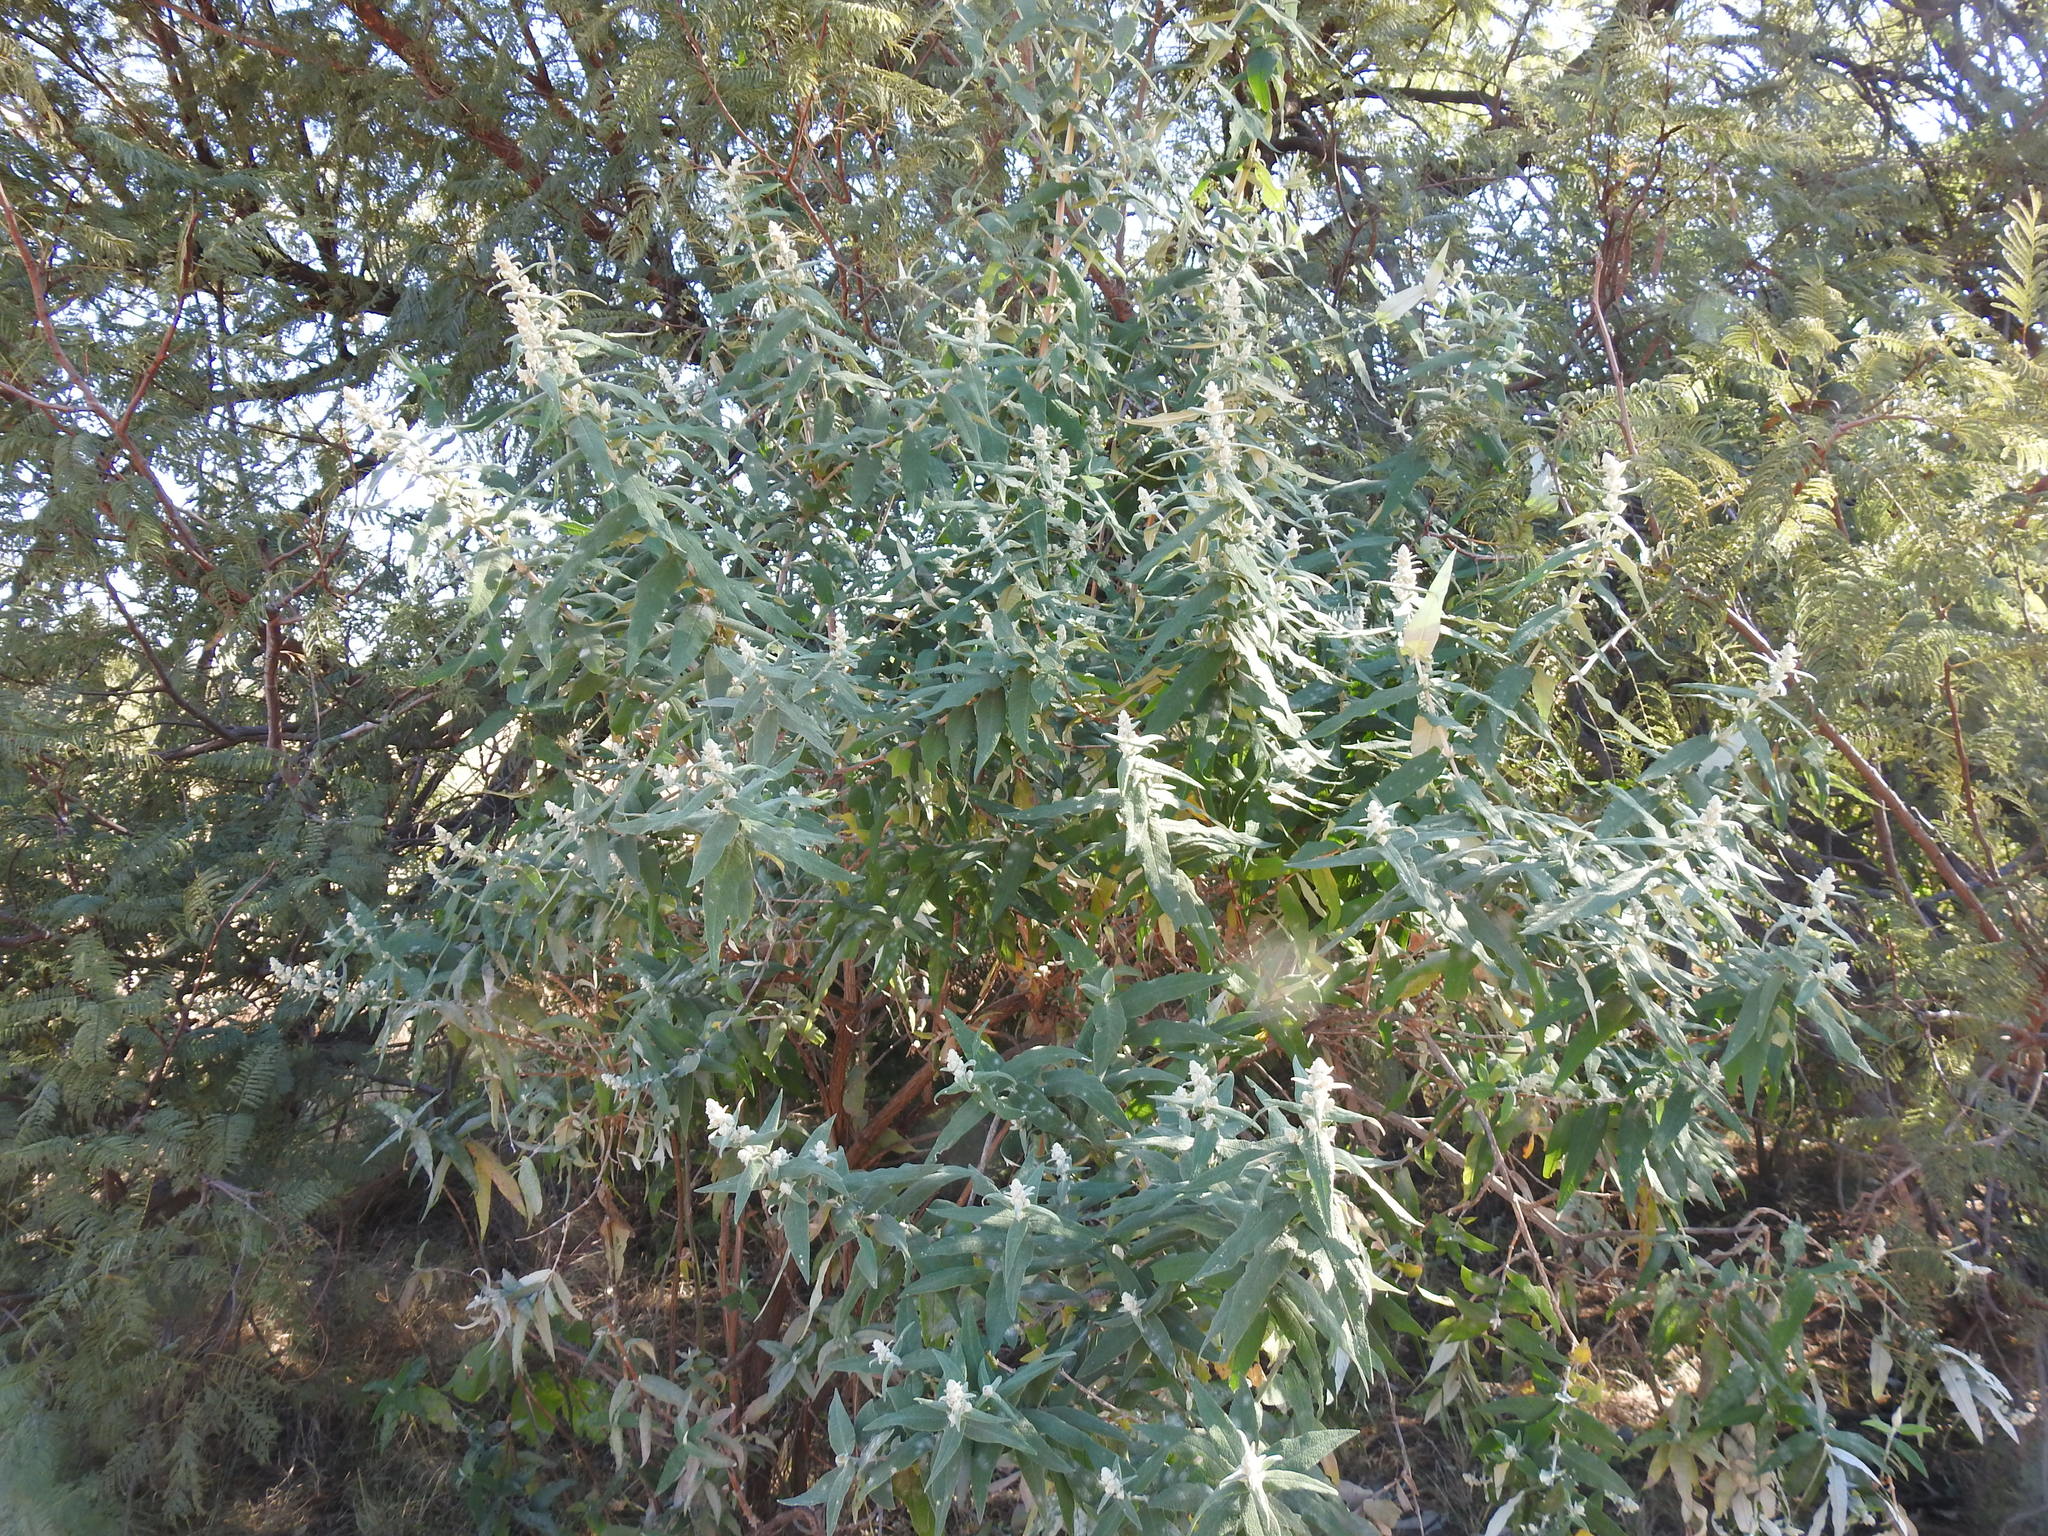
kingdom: Plantae
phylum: Tracheophyta
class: Magnoliopsida
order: Lamiales
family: Scrophulariaceae
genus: Buddleja
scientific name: Buddleja salviifolia
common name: Sagewood
